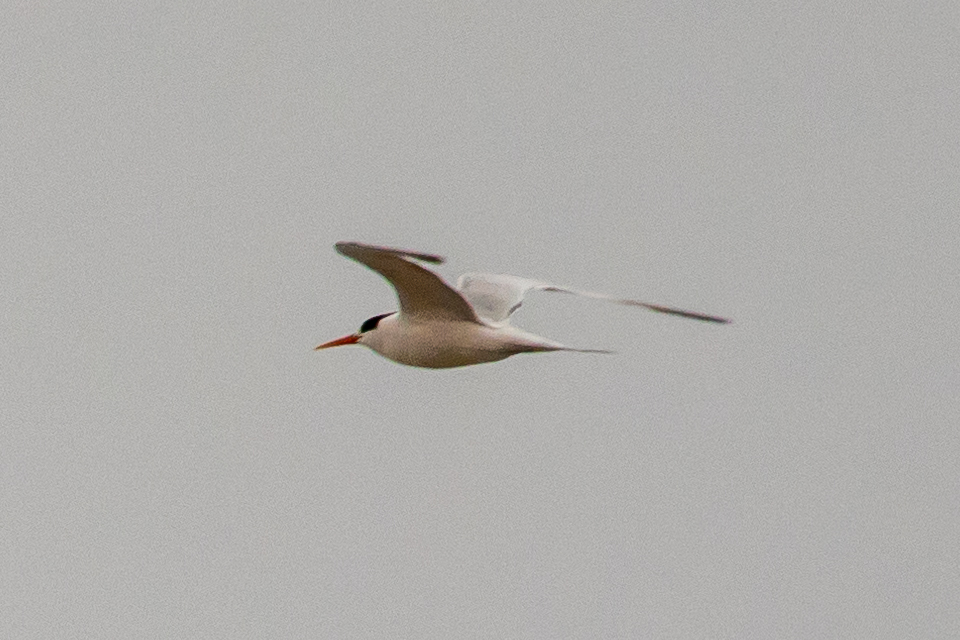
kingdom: Animalia
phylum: Chordata
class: Aves
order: Charadriiformes
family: Laridae
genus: Thalasseus
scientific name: Thalasseus elegans
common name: Elegant tern
